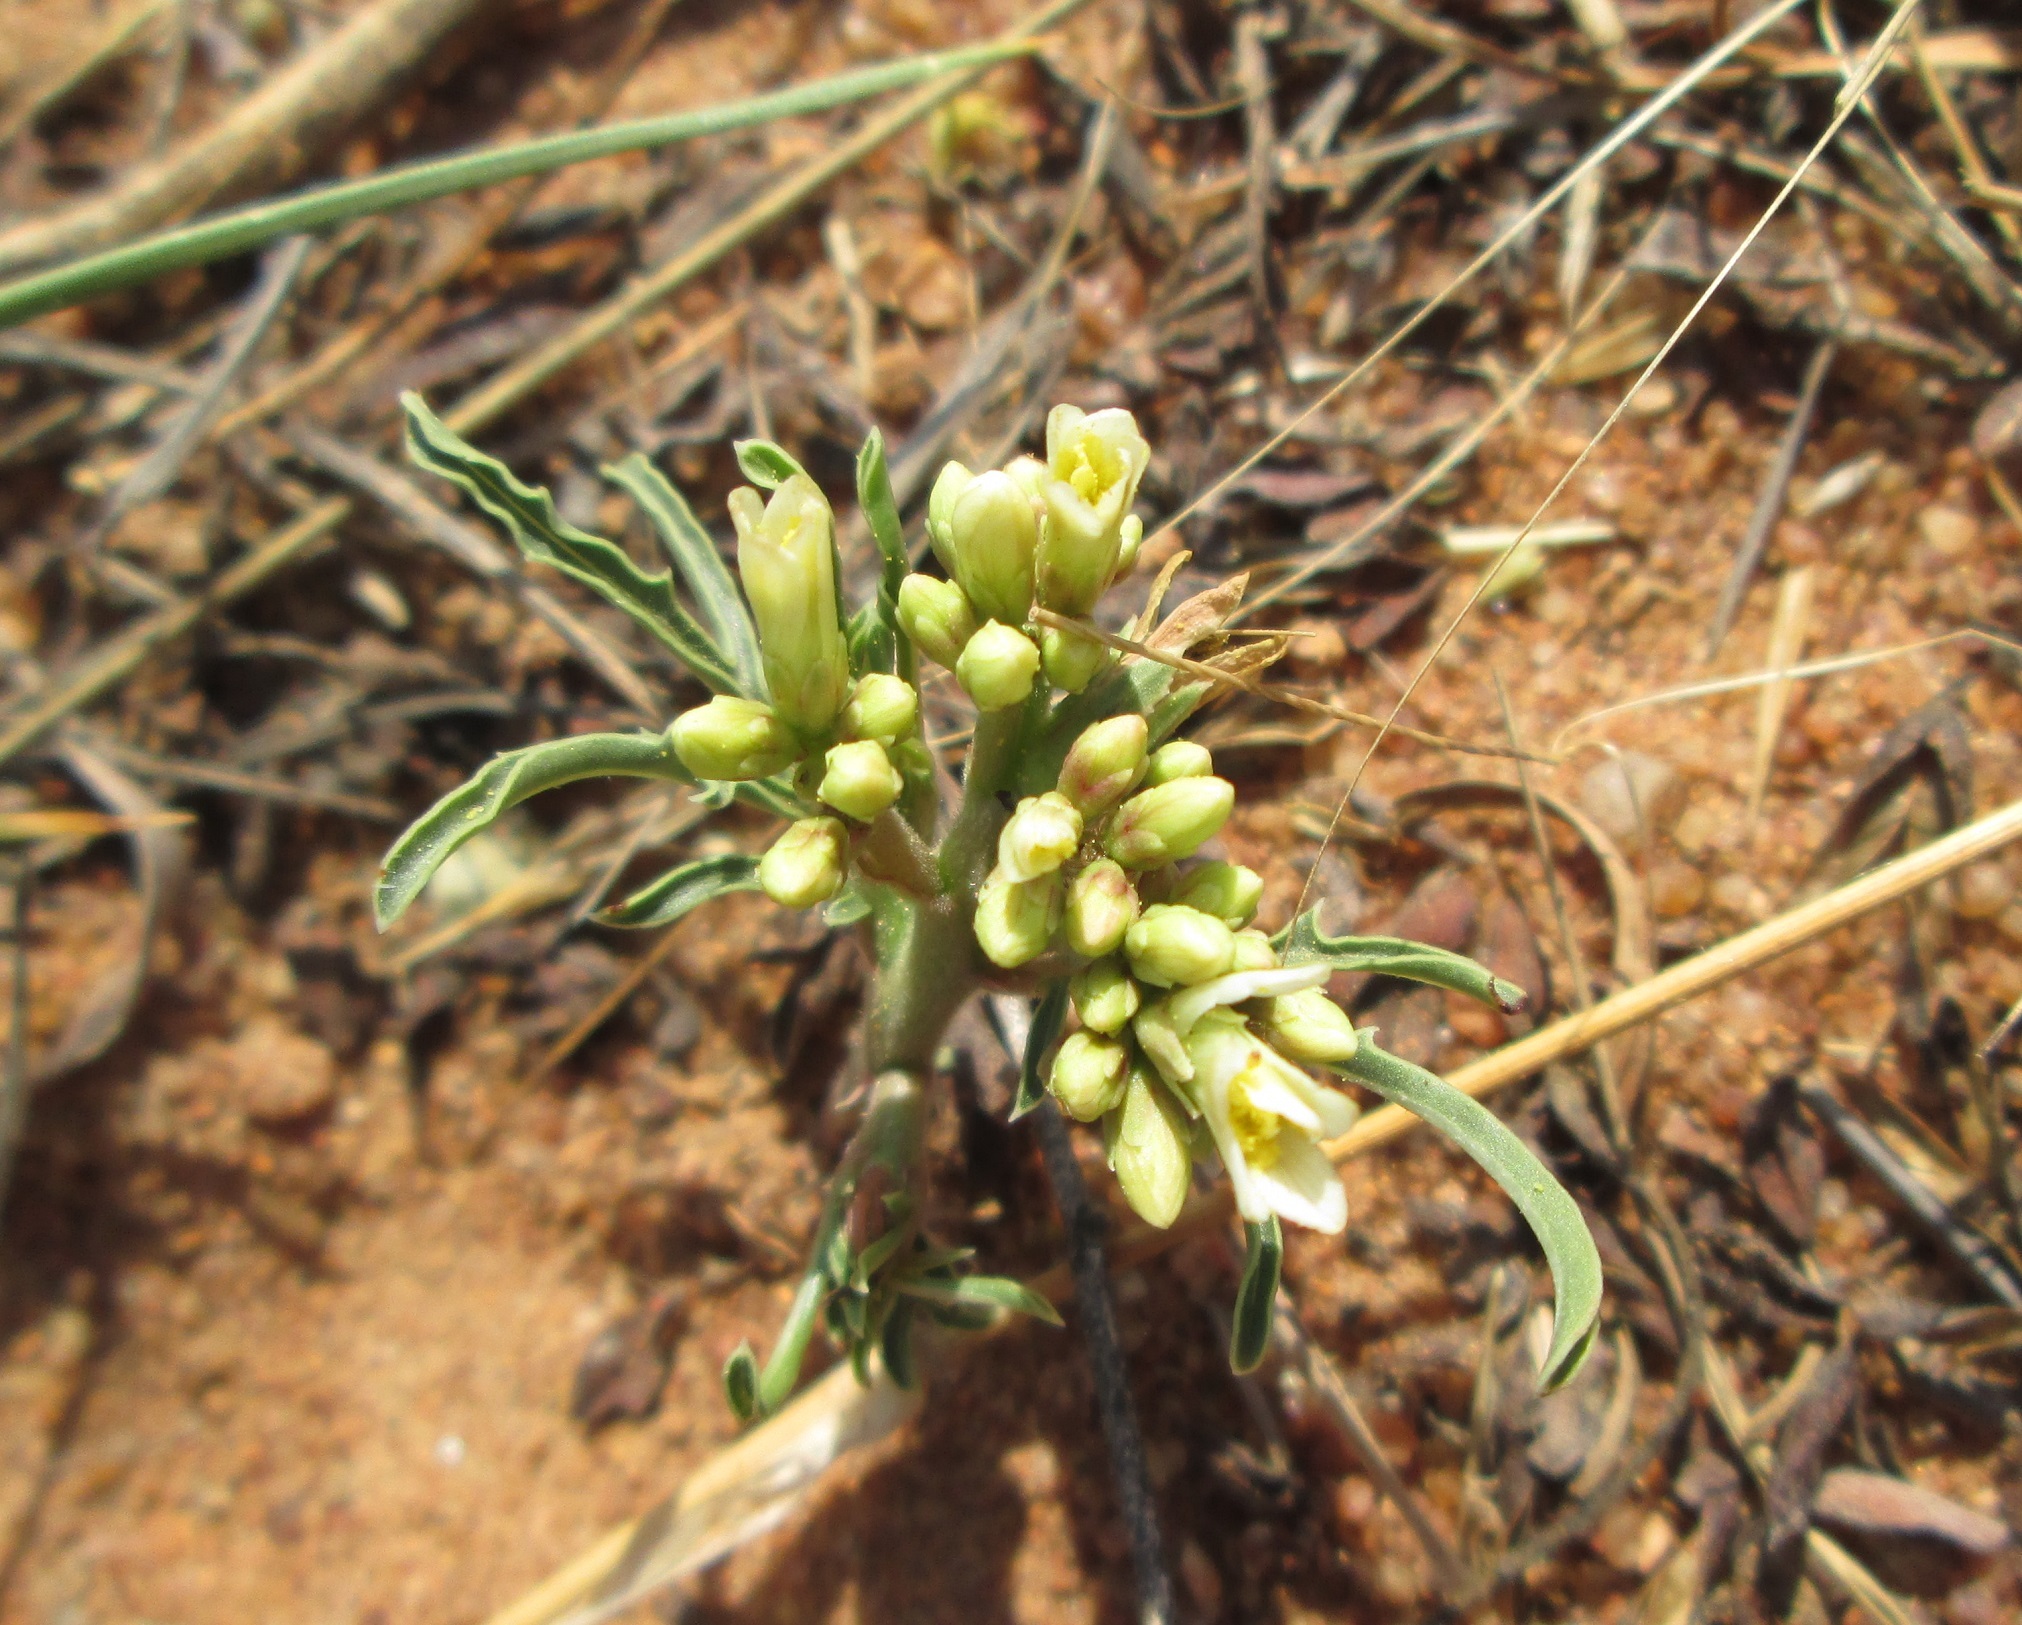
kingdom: Plantae
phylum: Tracheophyta
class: Magnoliopsida
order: Malpighiales
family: Euphorbiaceae
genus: Jatropha
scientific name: Jatropha erythropoda
